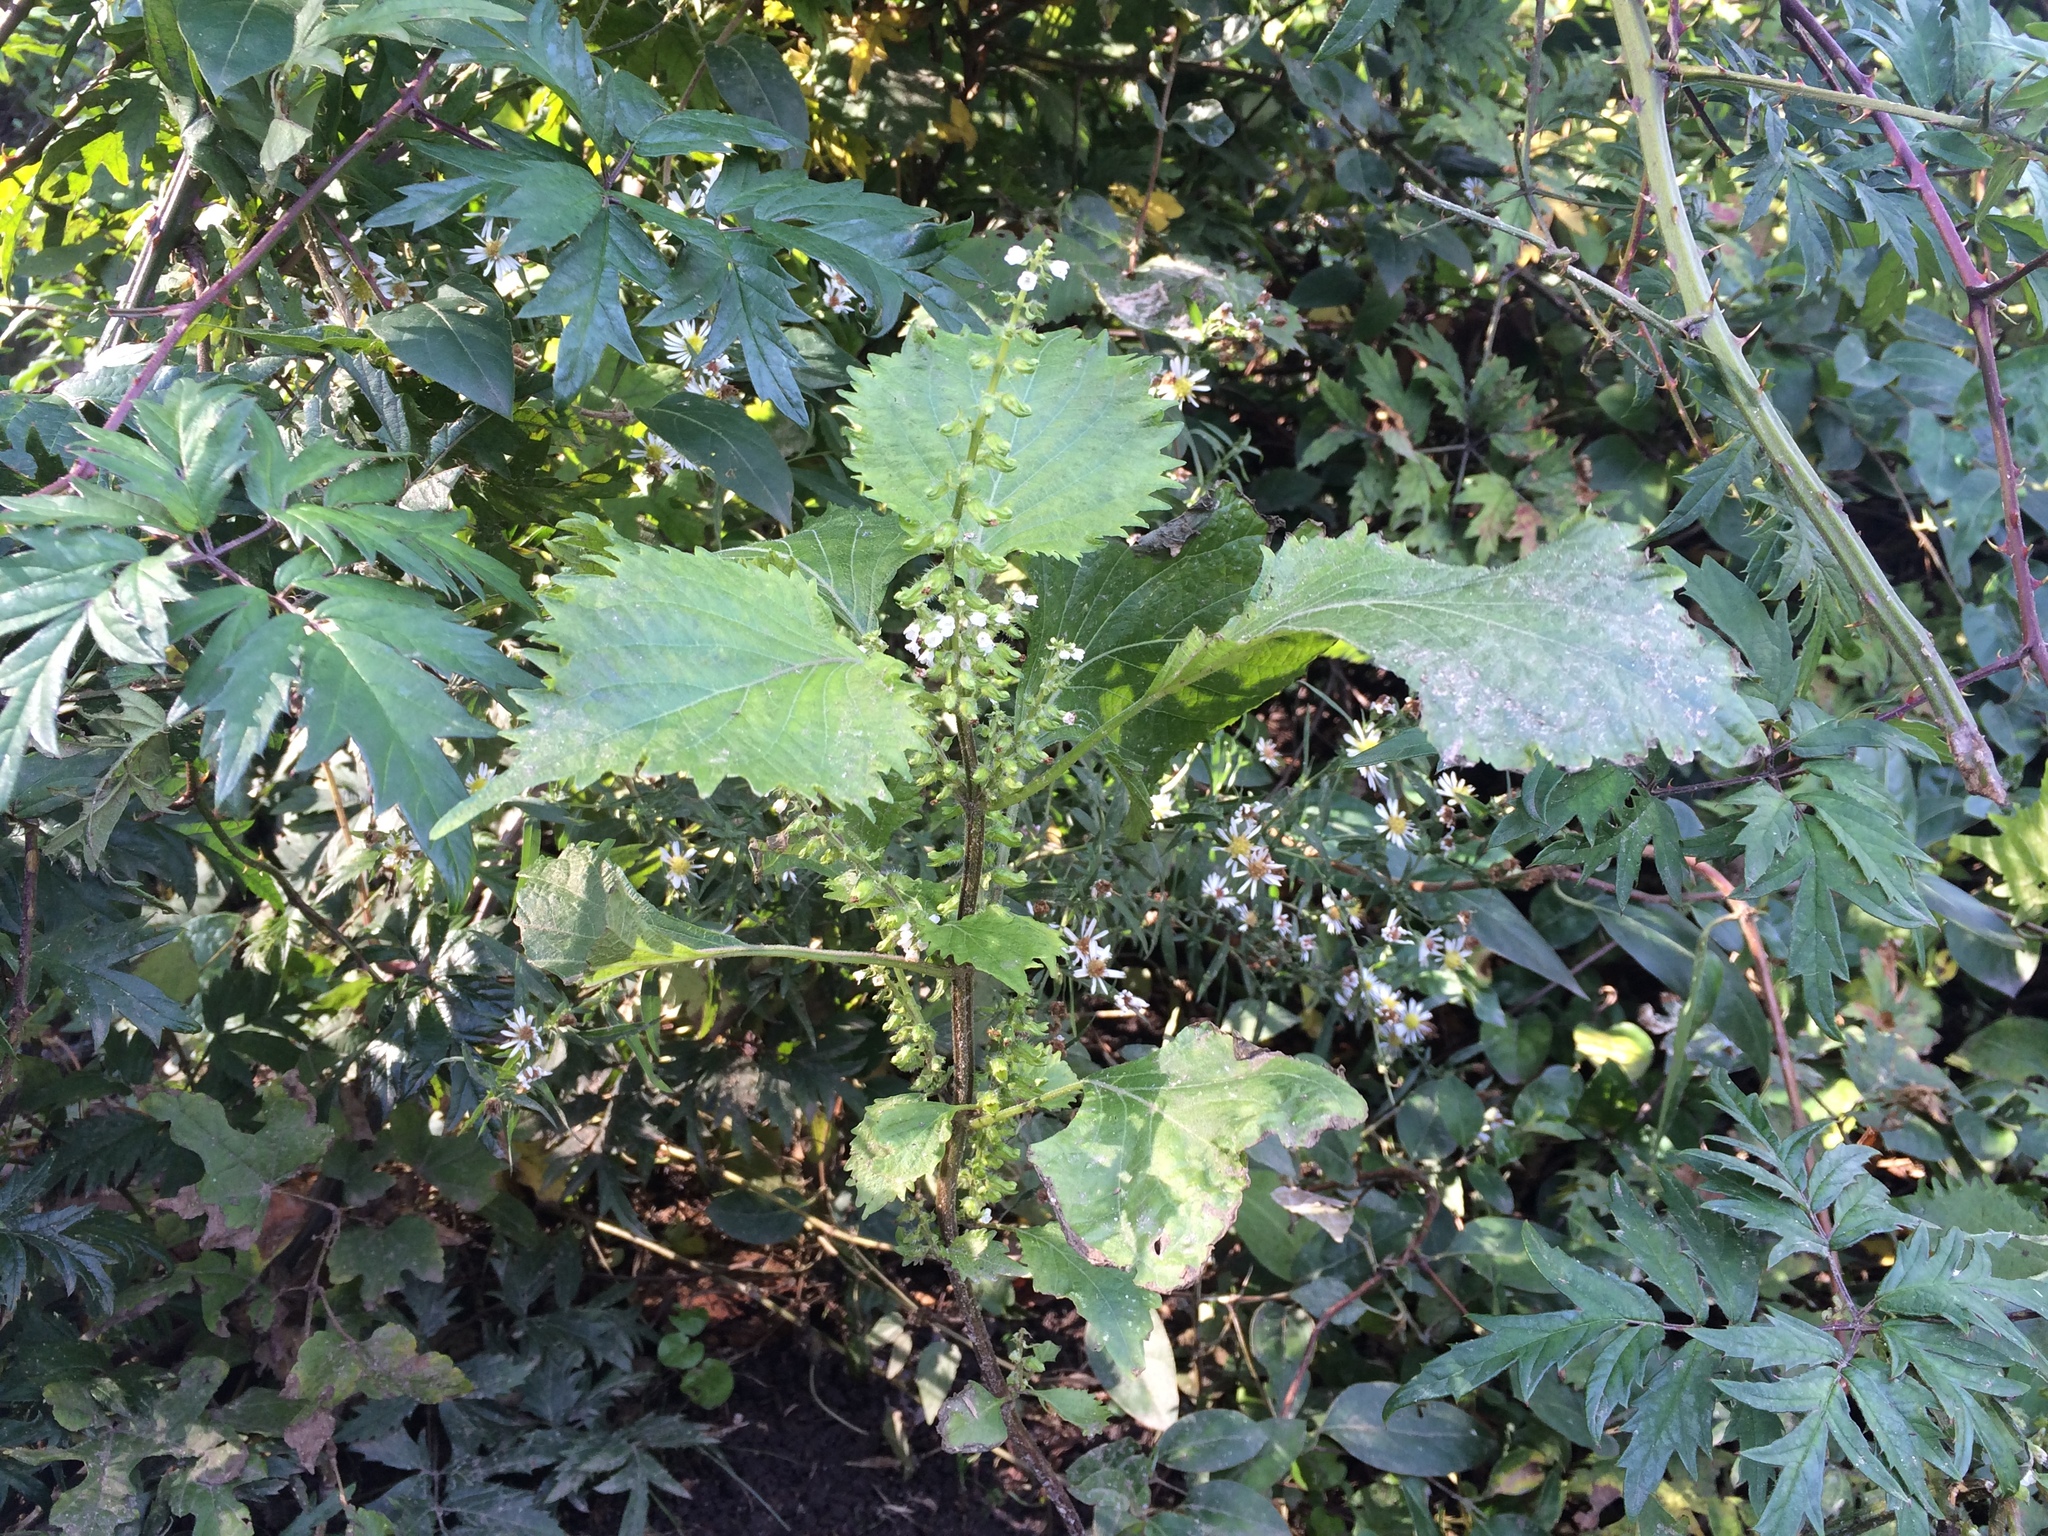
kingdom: Plantae
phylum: Tracheophyta
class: Magnoliopsida
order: Lamiales
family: Lamiaceae
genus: Perilla
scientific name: Perilla frutescens
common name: Perilla
